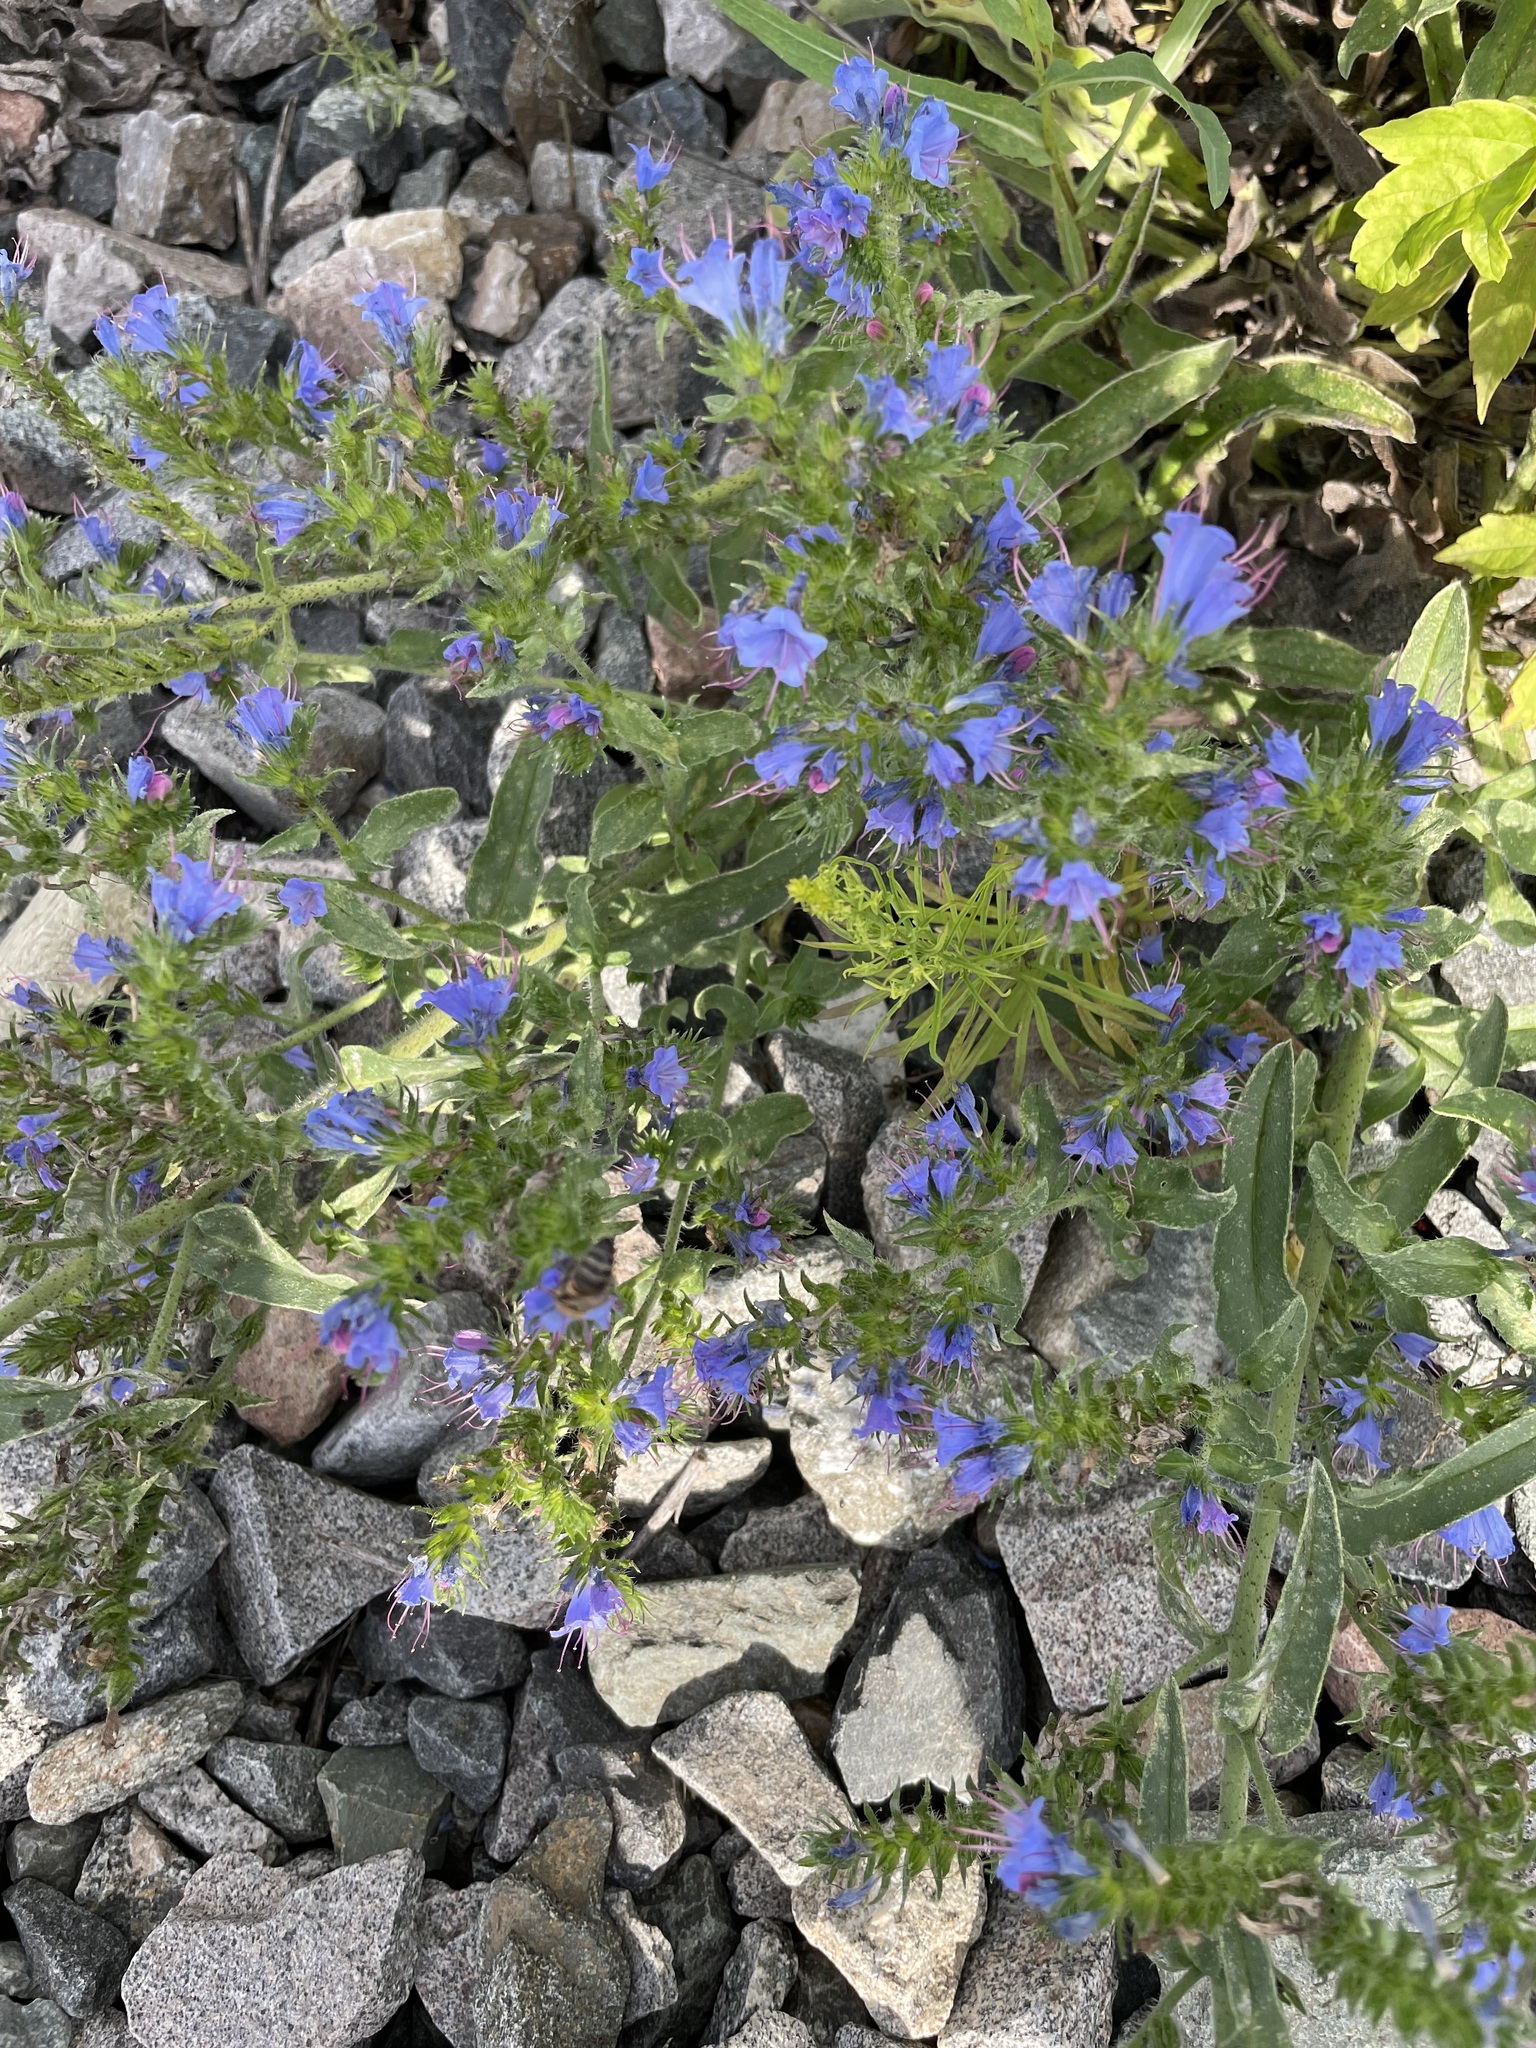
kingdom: Plantae
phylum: Tracheophyta
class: Magnoliopsida
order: Boraginales
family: Boraginaceae
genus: Echium
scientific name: Echium vulgare
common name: Common viper's bugloss
